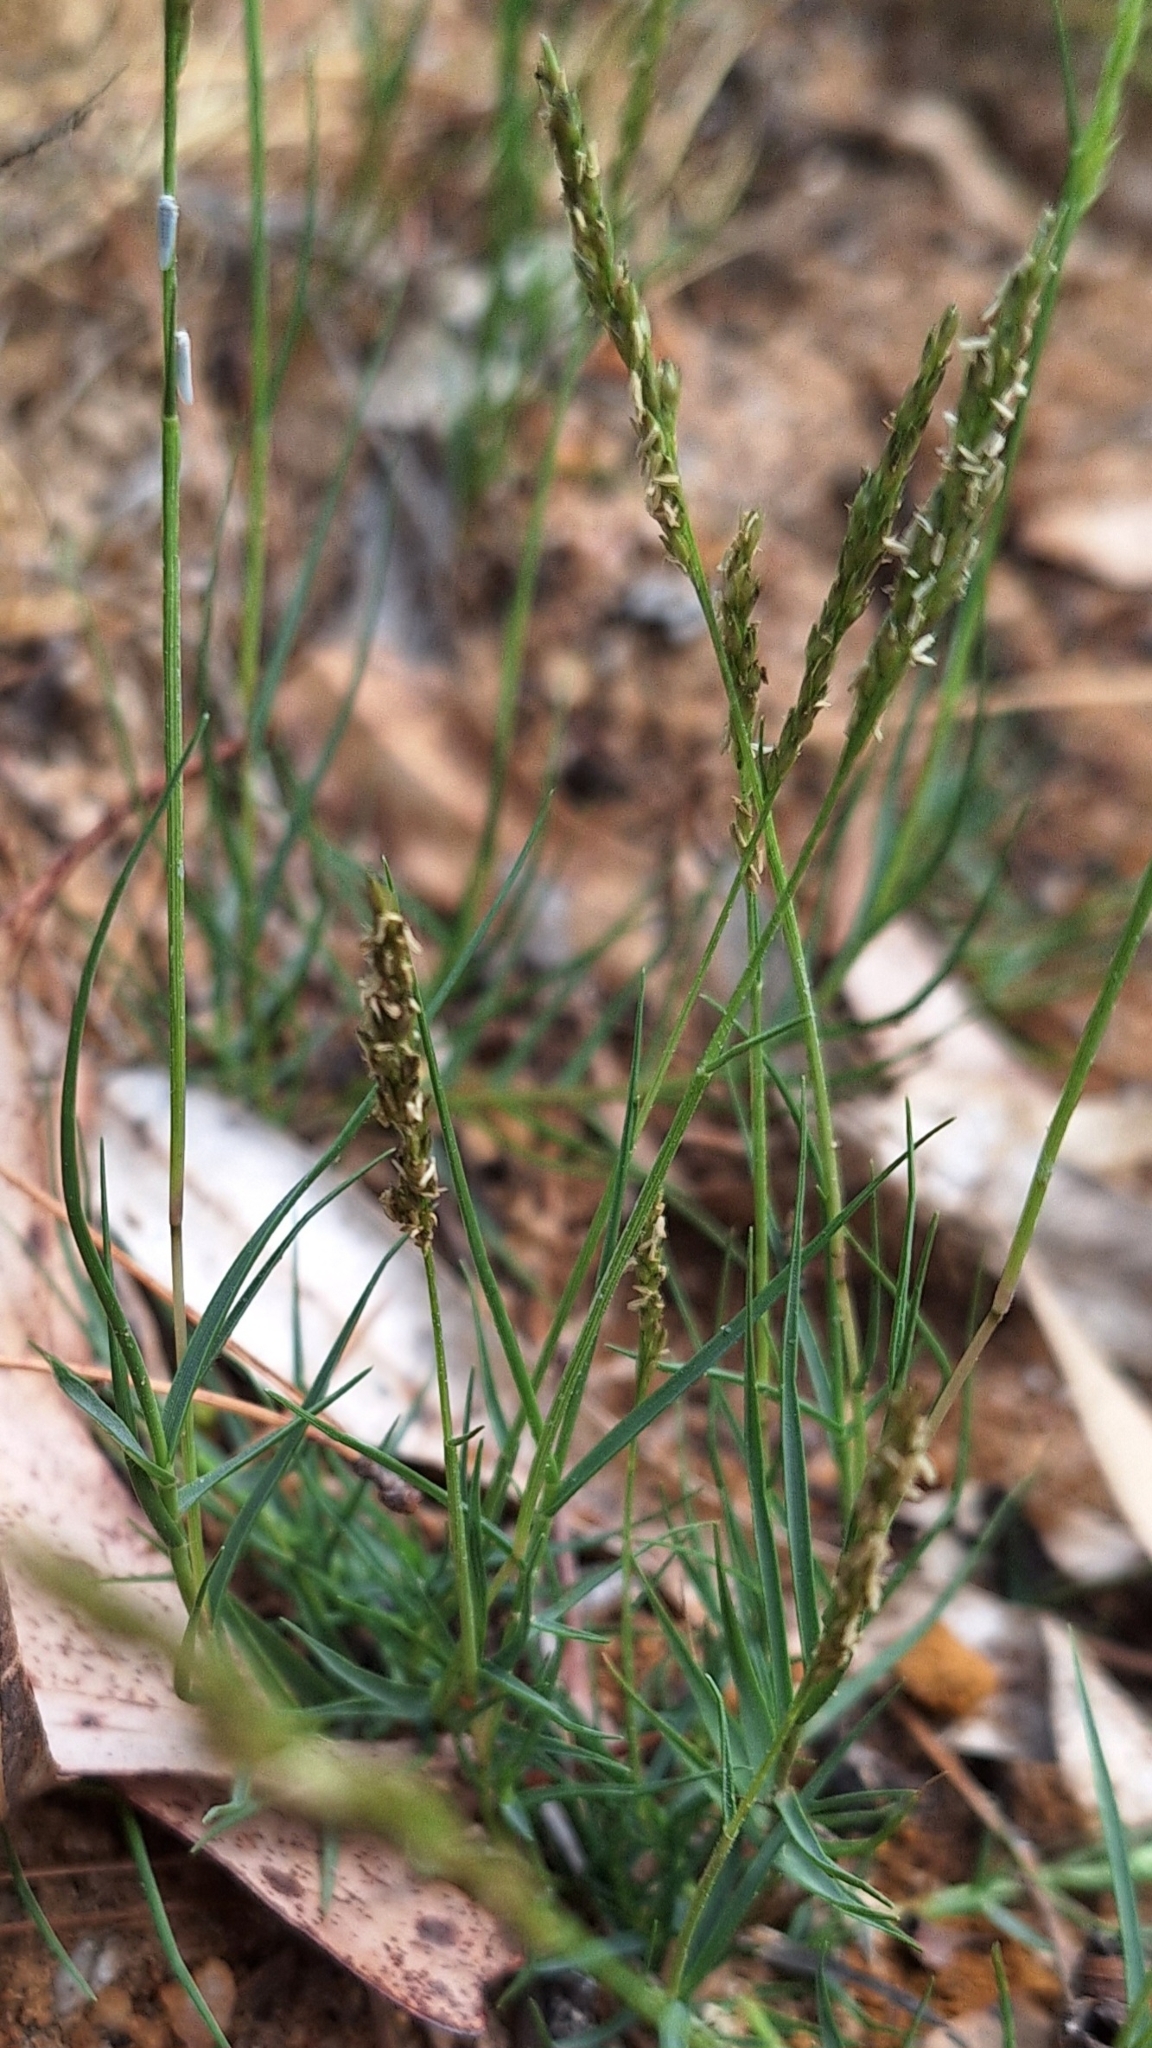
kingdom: Plantae
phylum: Tracheophyta
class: Liliopsida
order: Poales
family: Poaceae
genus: Distichlis
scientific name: Distichlis distichophylla
